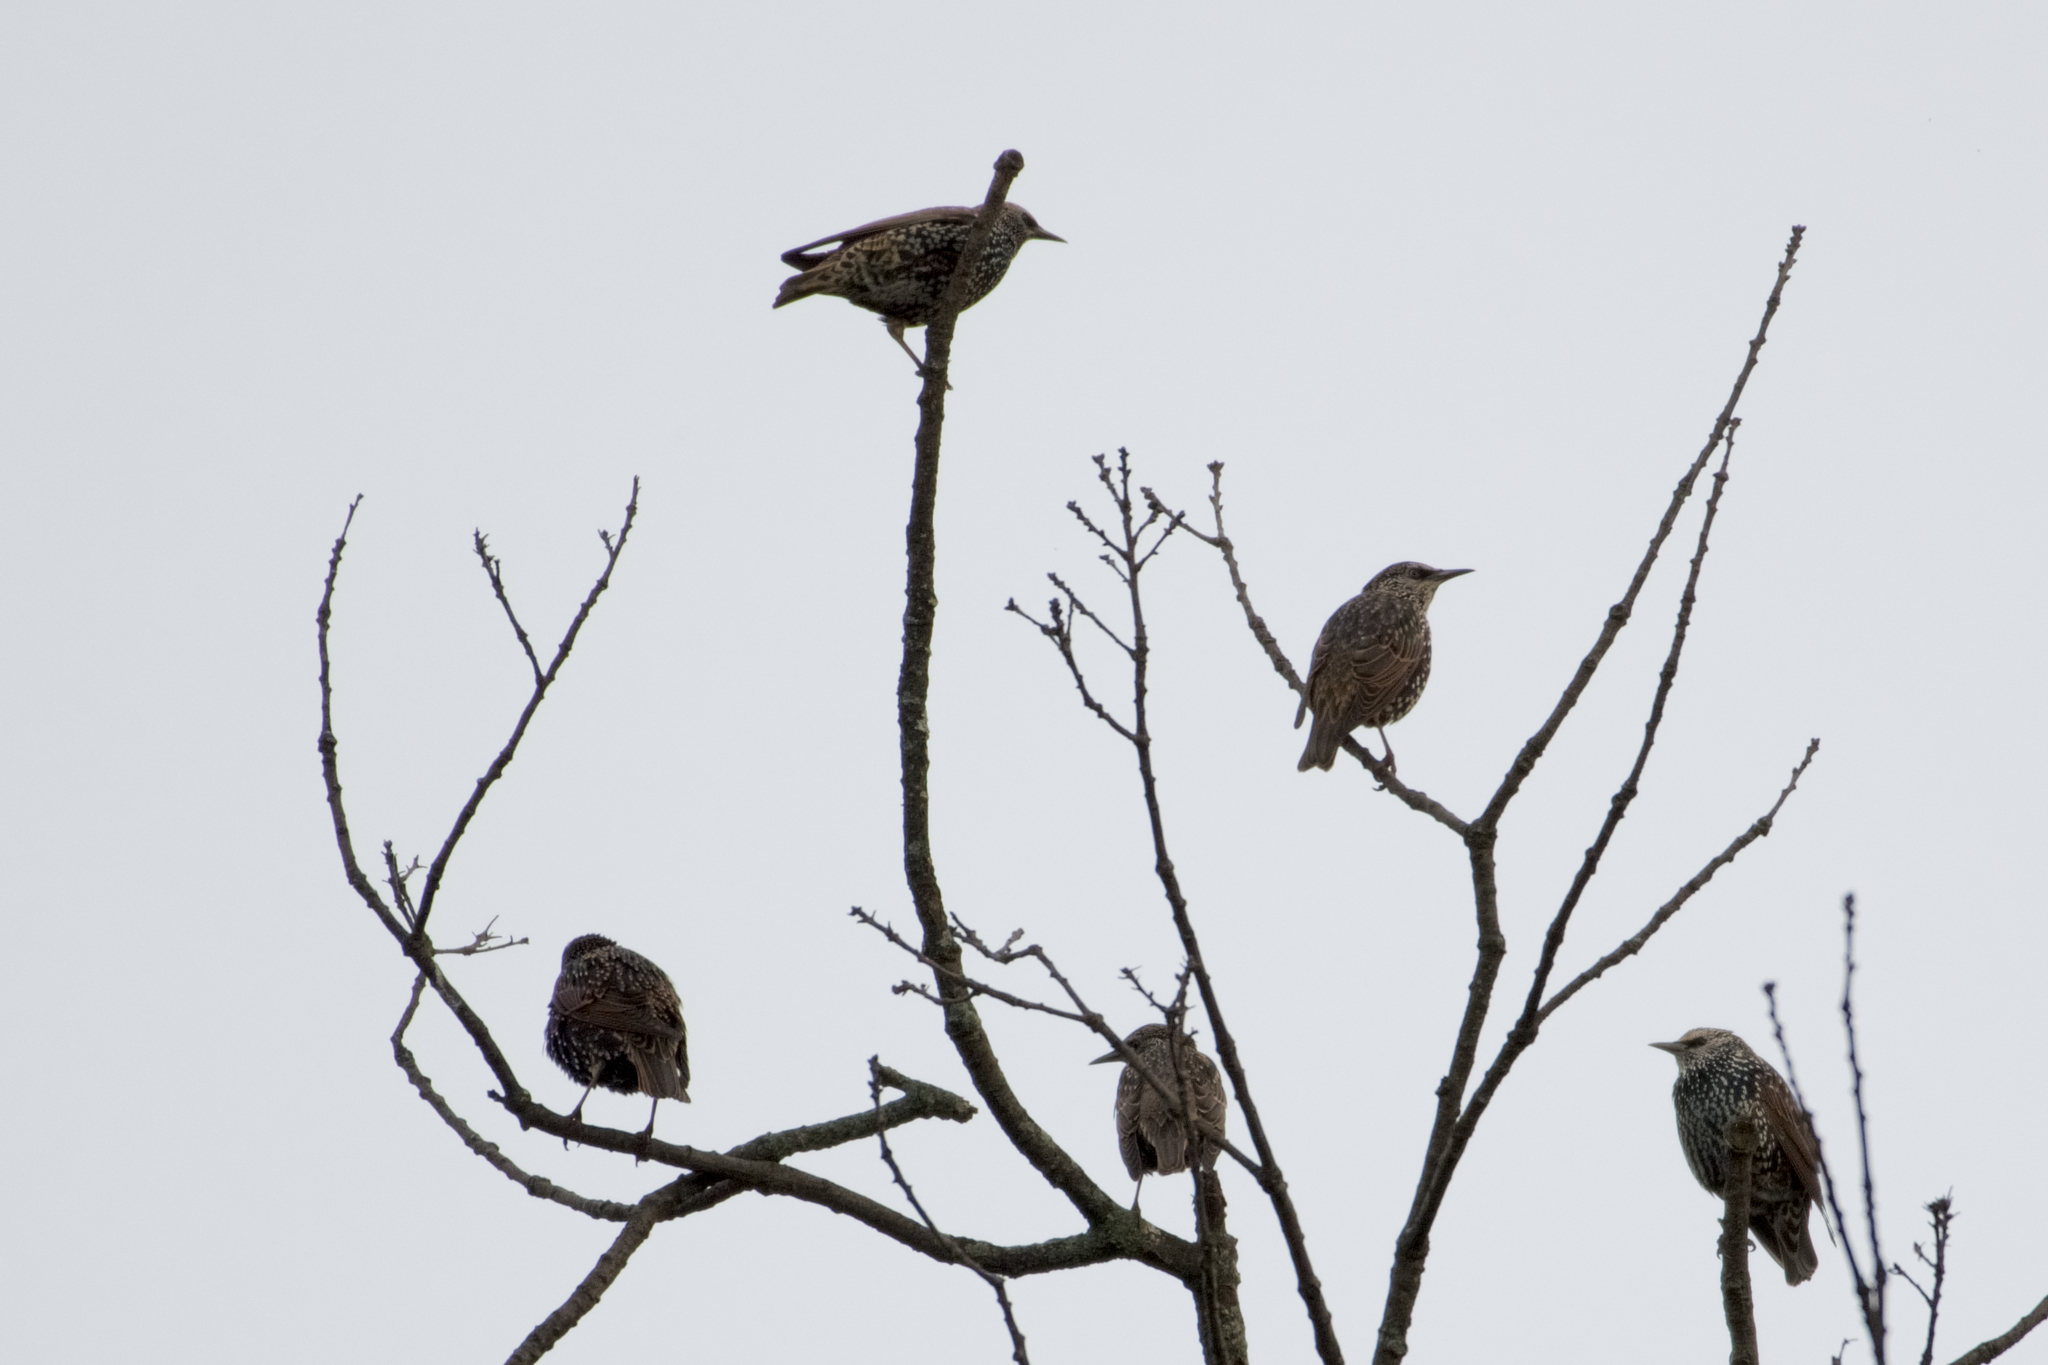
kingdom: Animalia
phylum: Chordata
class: Aves
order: Passeriformes
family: Sturnidae
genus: Sturnus
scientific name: Sturnus vulgaris
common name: Common starling
